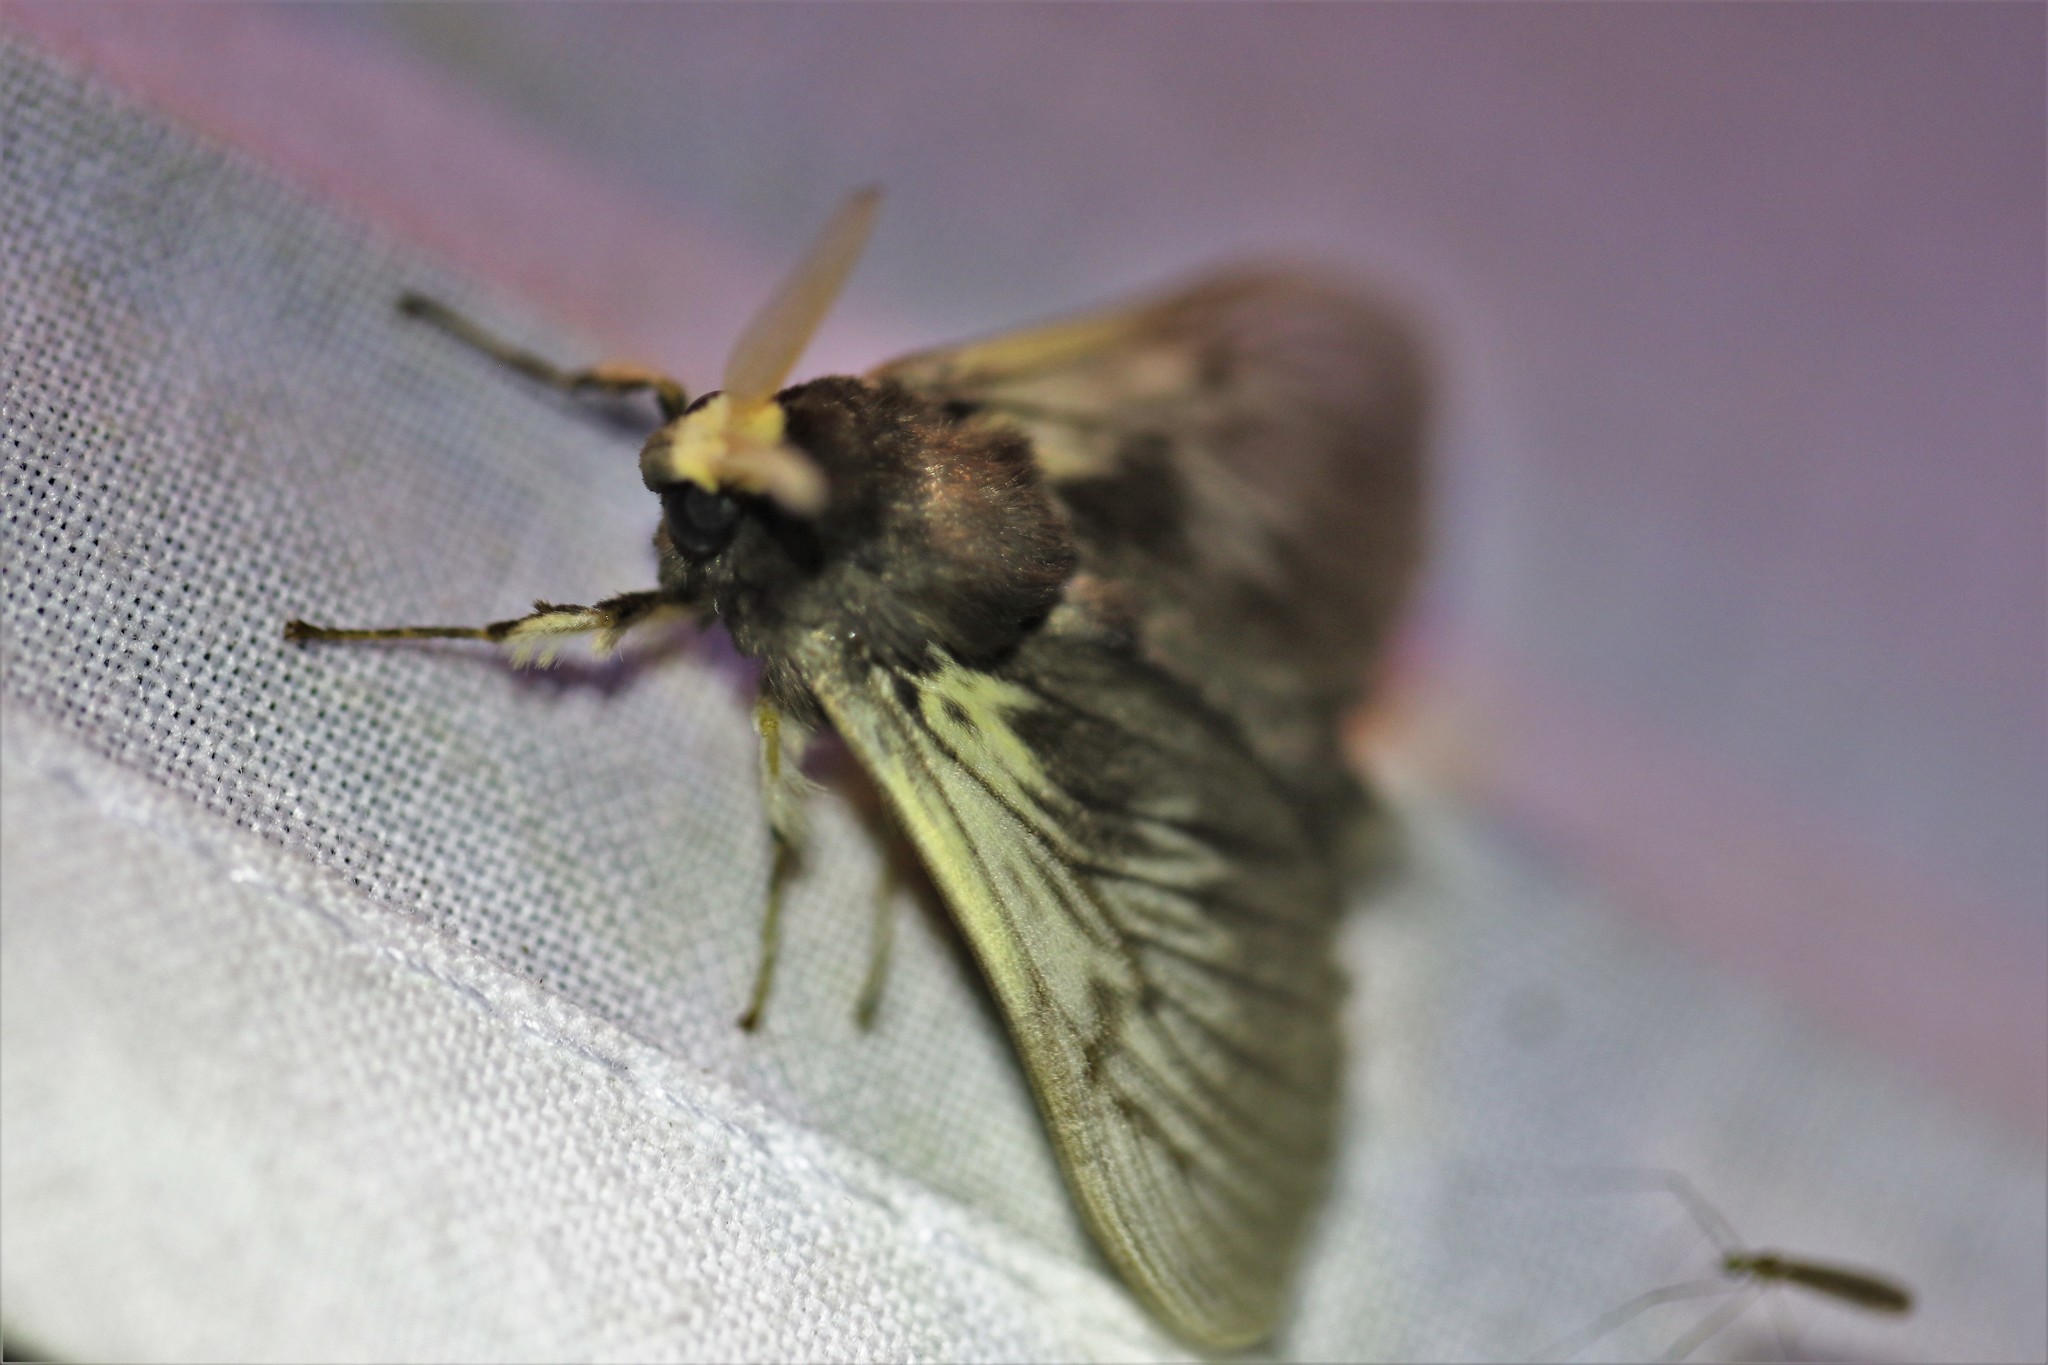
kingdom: Animalia
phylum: Arthropoda
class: Insecta
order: Lepidoptera
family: Megalopygidae
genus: Podalia
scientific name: Podalia tympania
